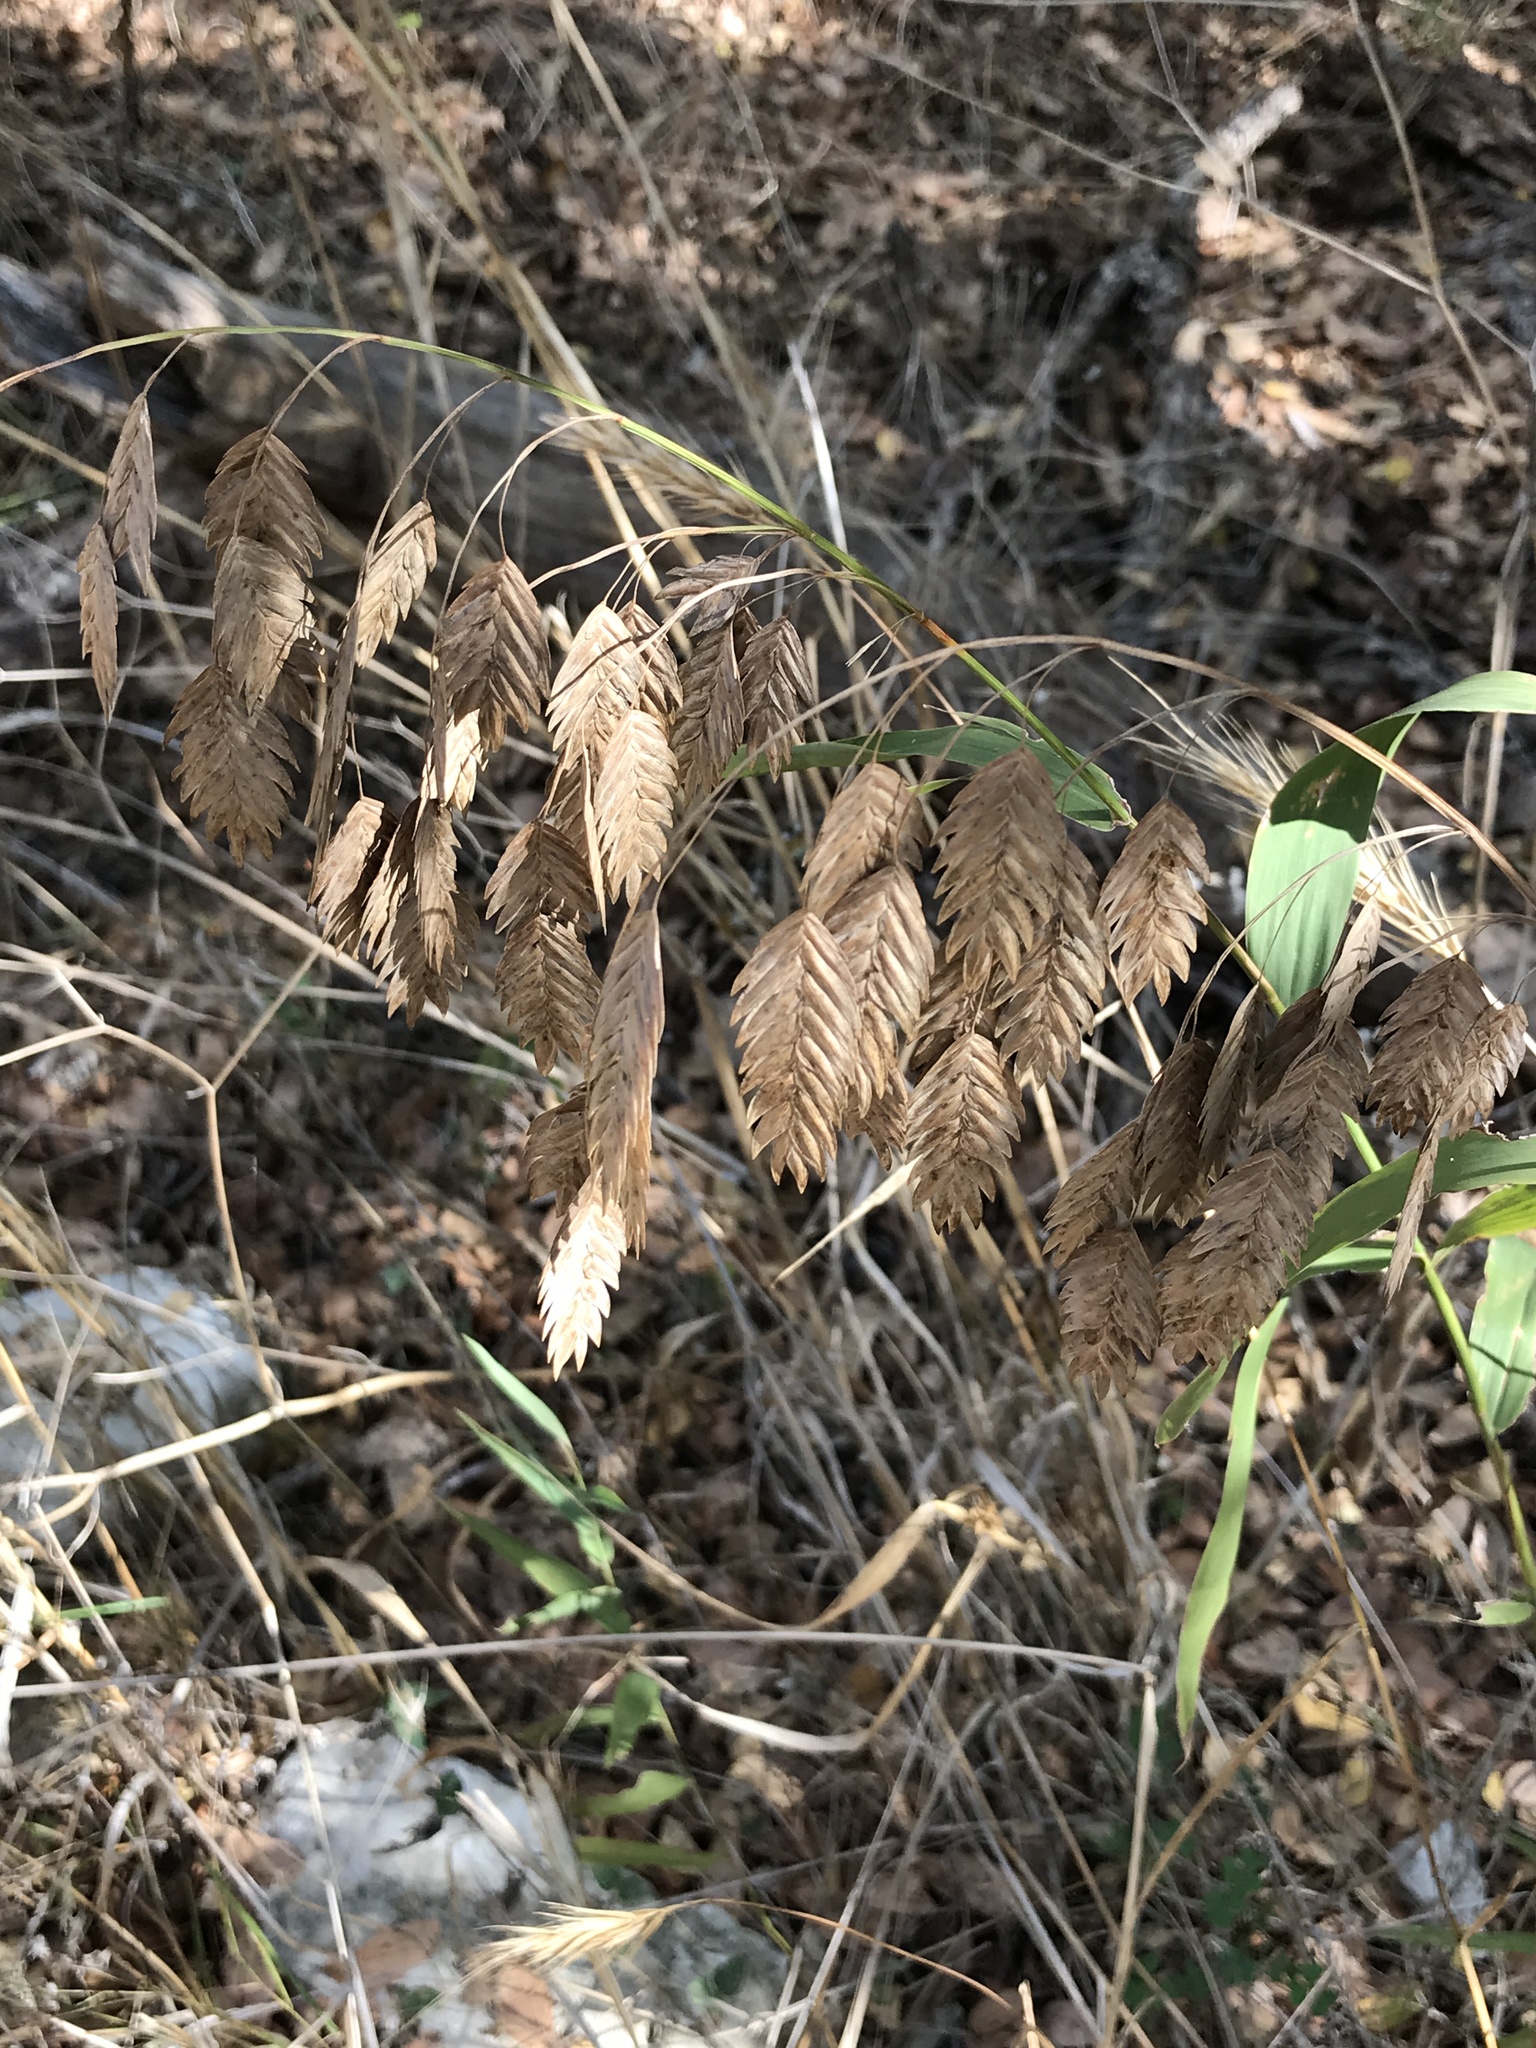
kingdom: Plantae
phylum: Tracheophyta
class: Liliopsida
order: Poales
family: Poaceae
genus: Chasmanthium
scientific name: Chasmanthium latifolium
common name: Broad-leaved chasmanthium
